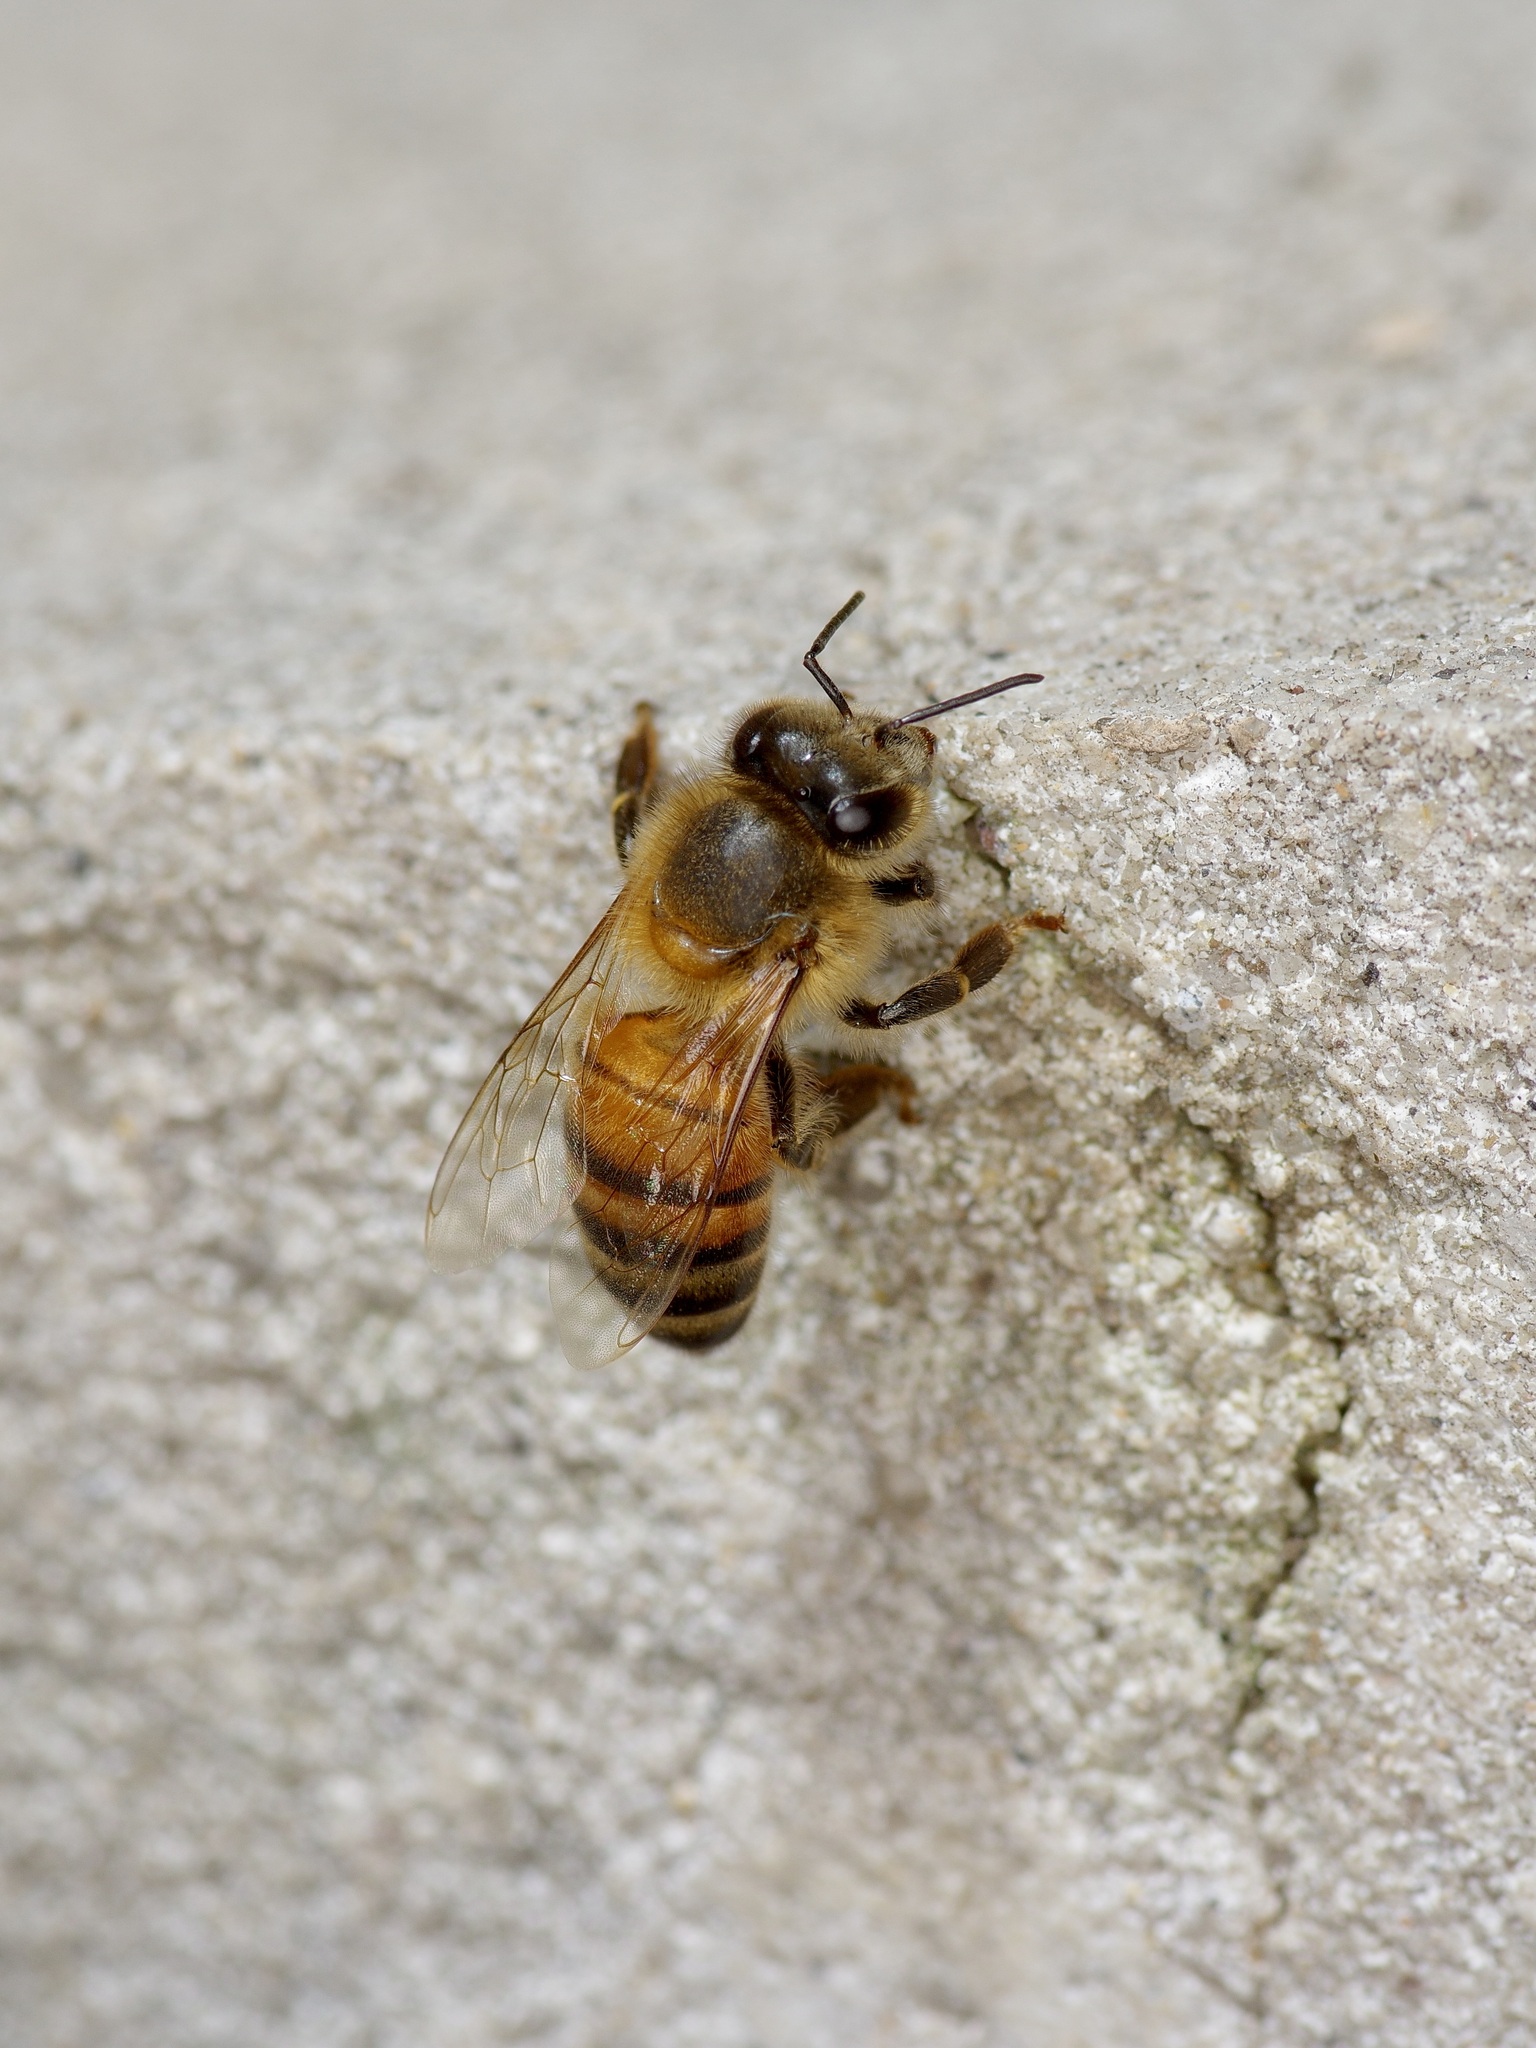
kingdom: Animalia
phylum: Arthropoda
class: Insecta
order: Hymenoptera
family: Apidae
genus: Apis
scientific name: Apis mellifera
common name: Honey bee
